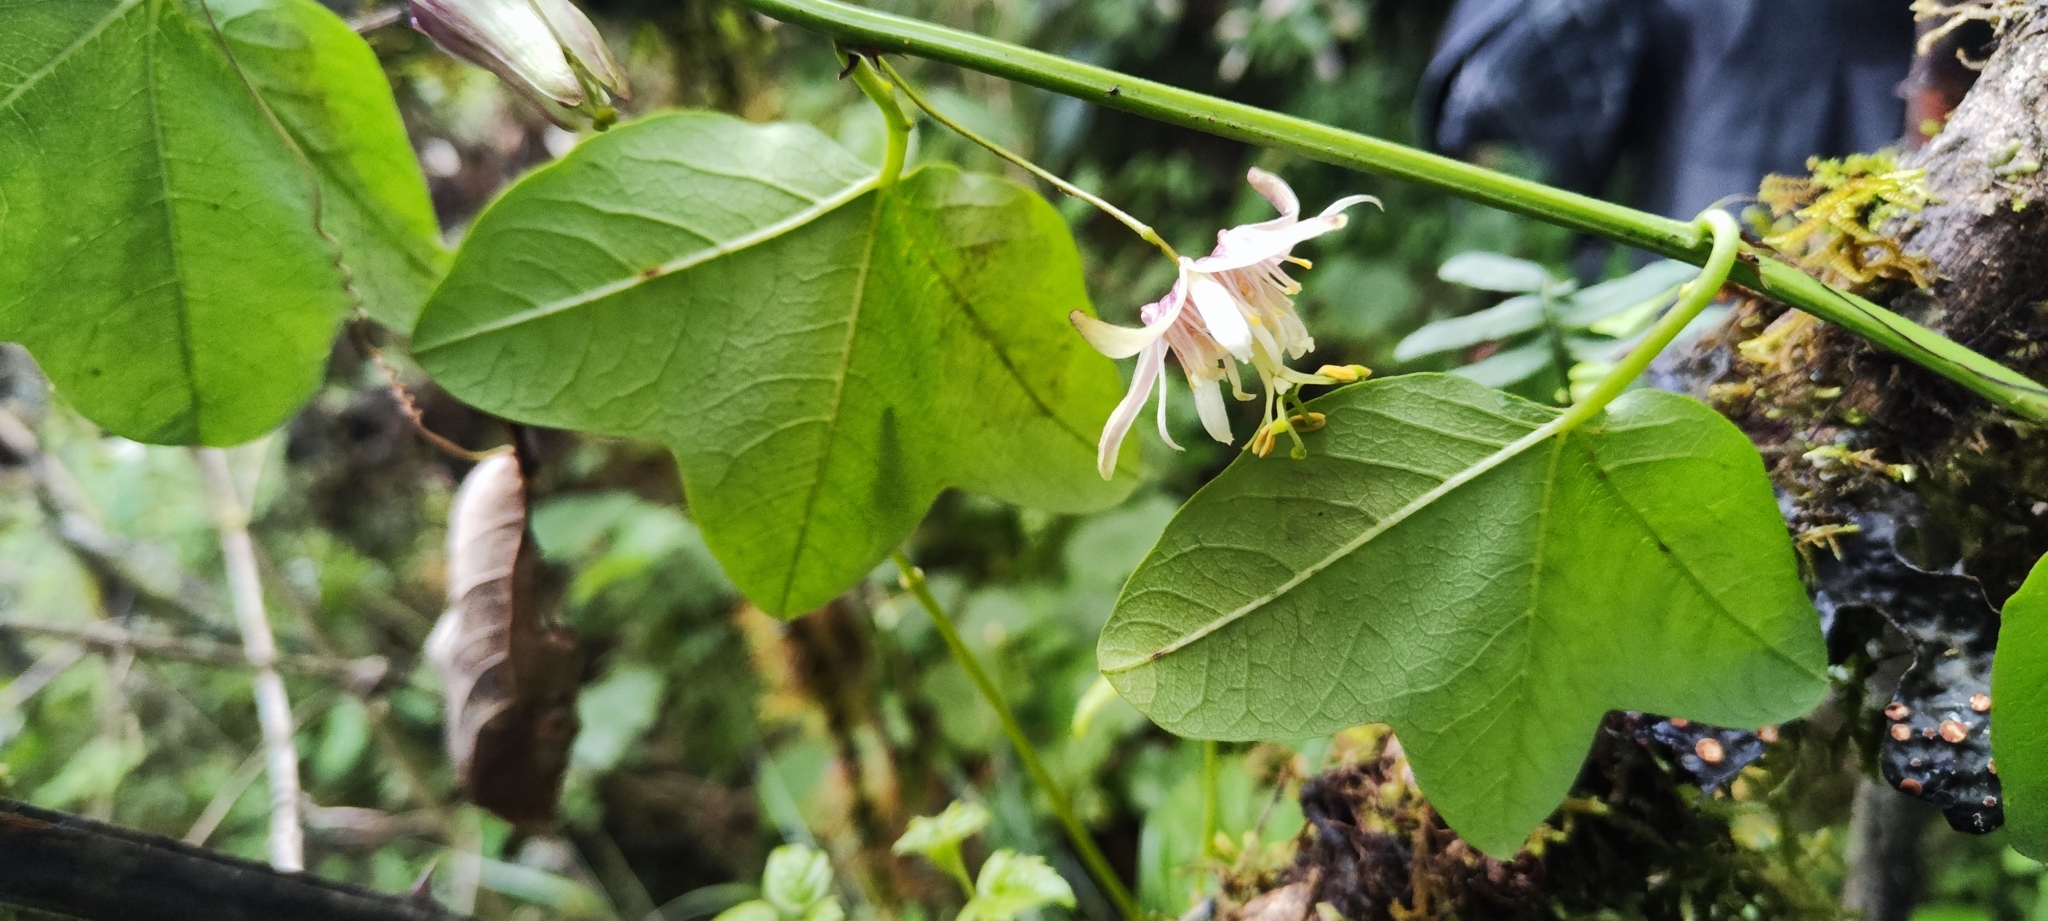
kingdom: Plantae
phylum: Tracheophyta
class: Magnoliopsida
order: Malpighiales
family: Passifloraceae
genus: Passiflora
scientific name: Passiflora sagasteguii
